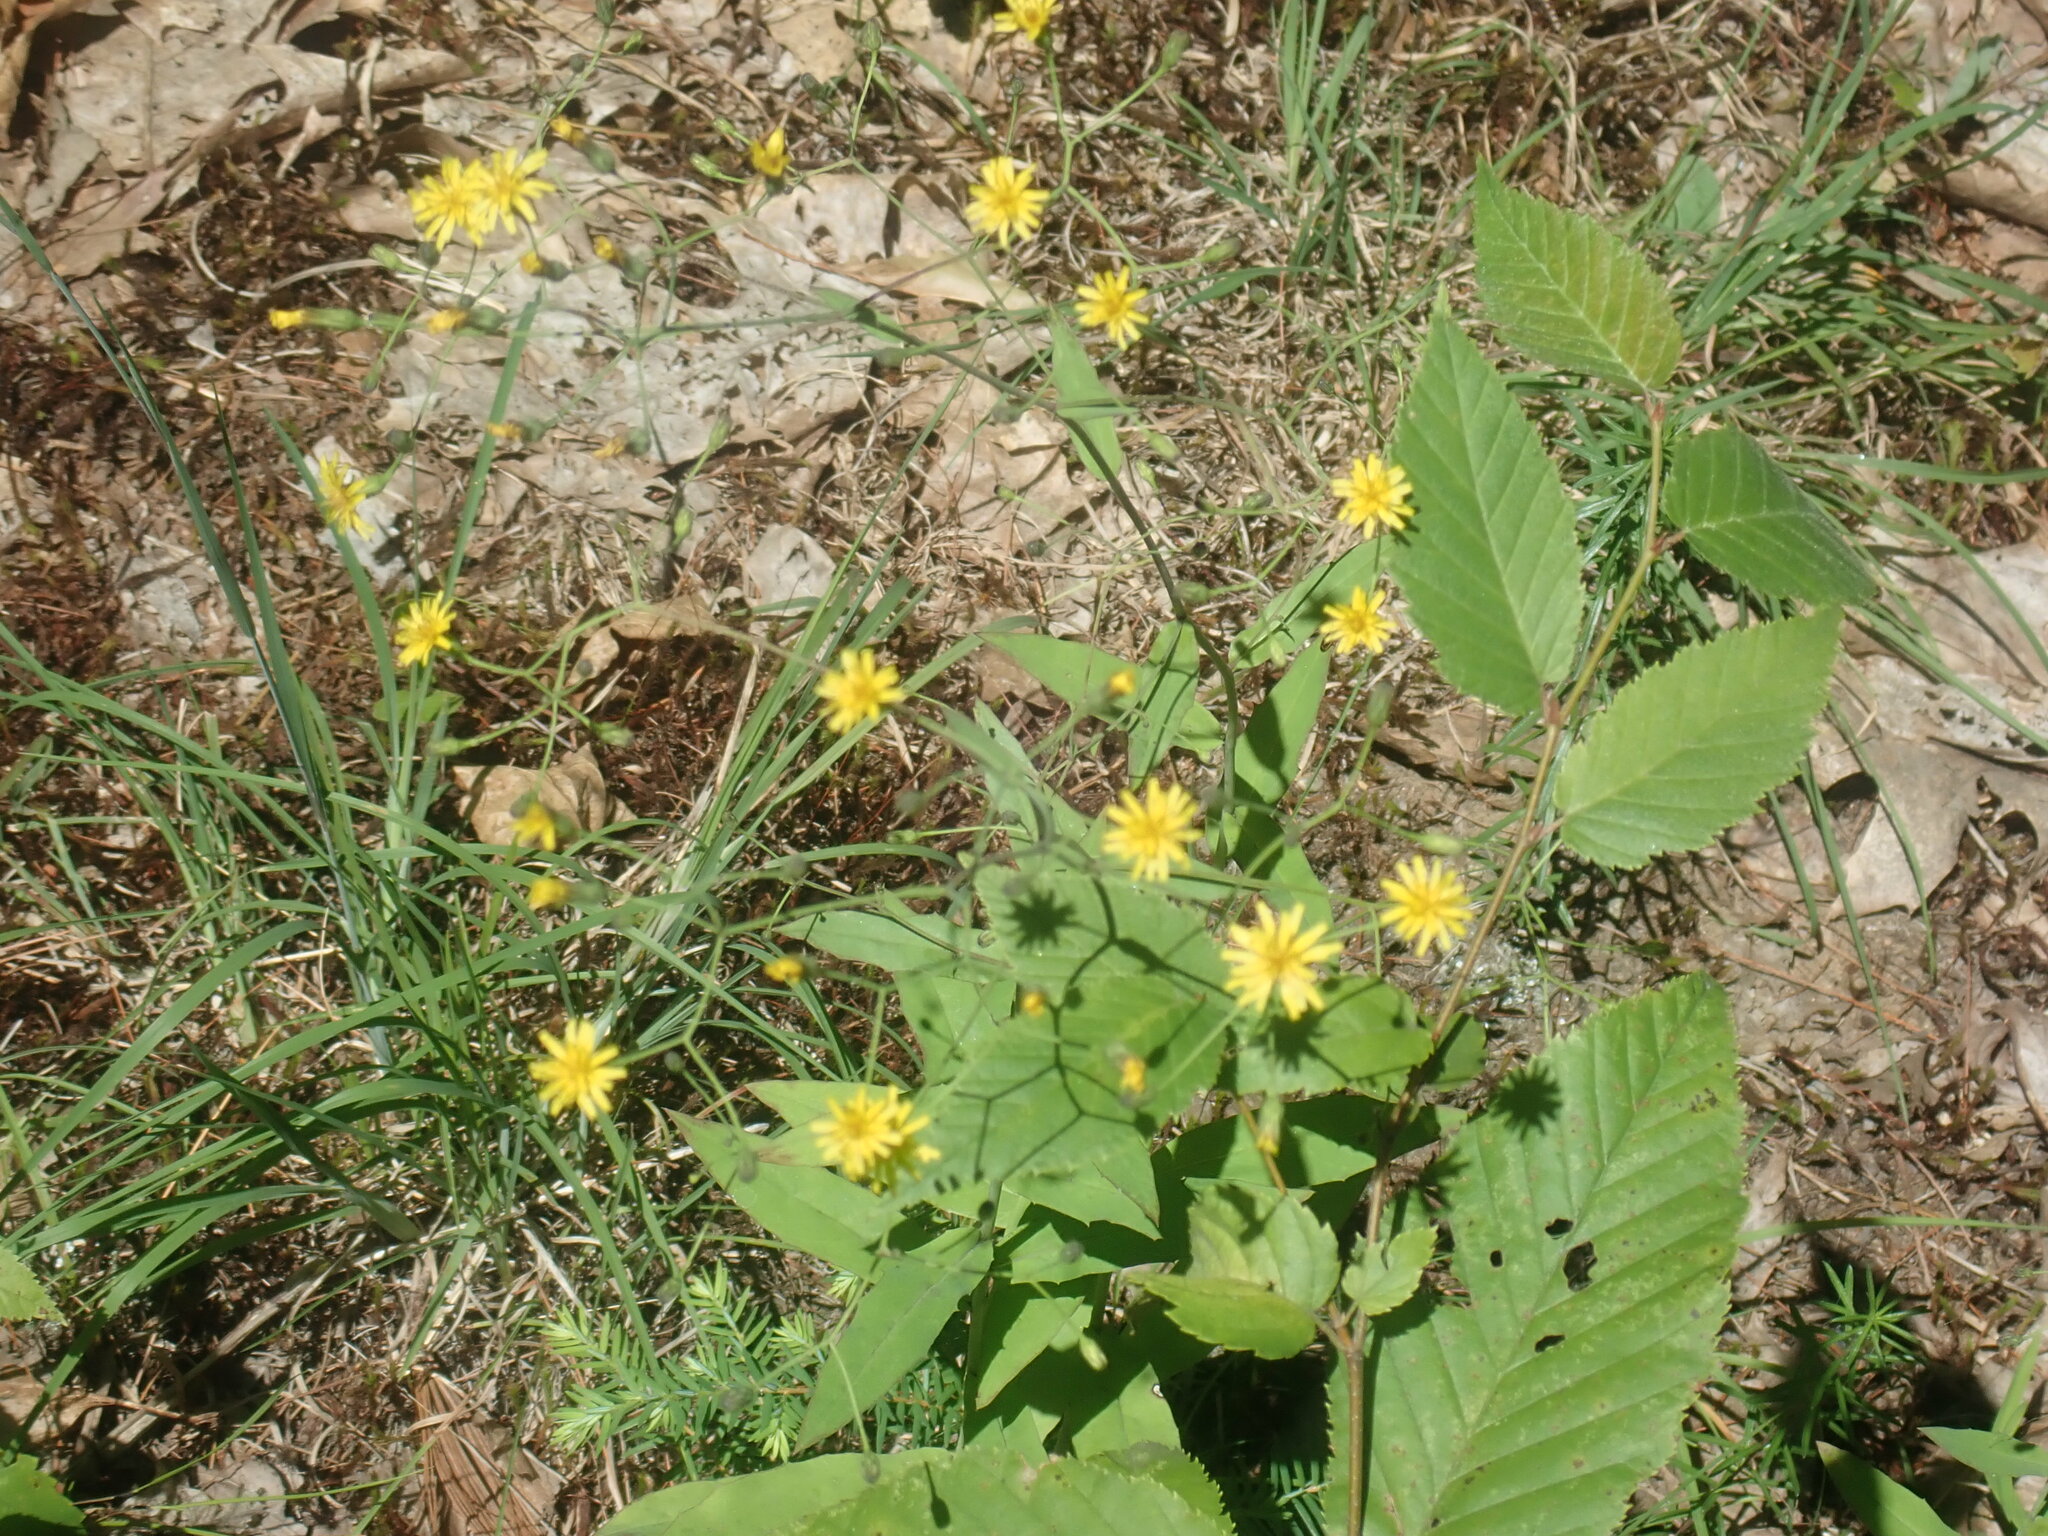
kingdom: Plantae
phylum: Tracheophyta
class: Magnoliopsida
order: Asterales
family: Asteraceae
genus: Hieracium
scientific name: Hieracium paniculatum
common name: Allegheny hawkweed
